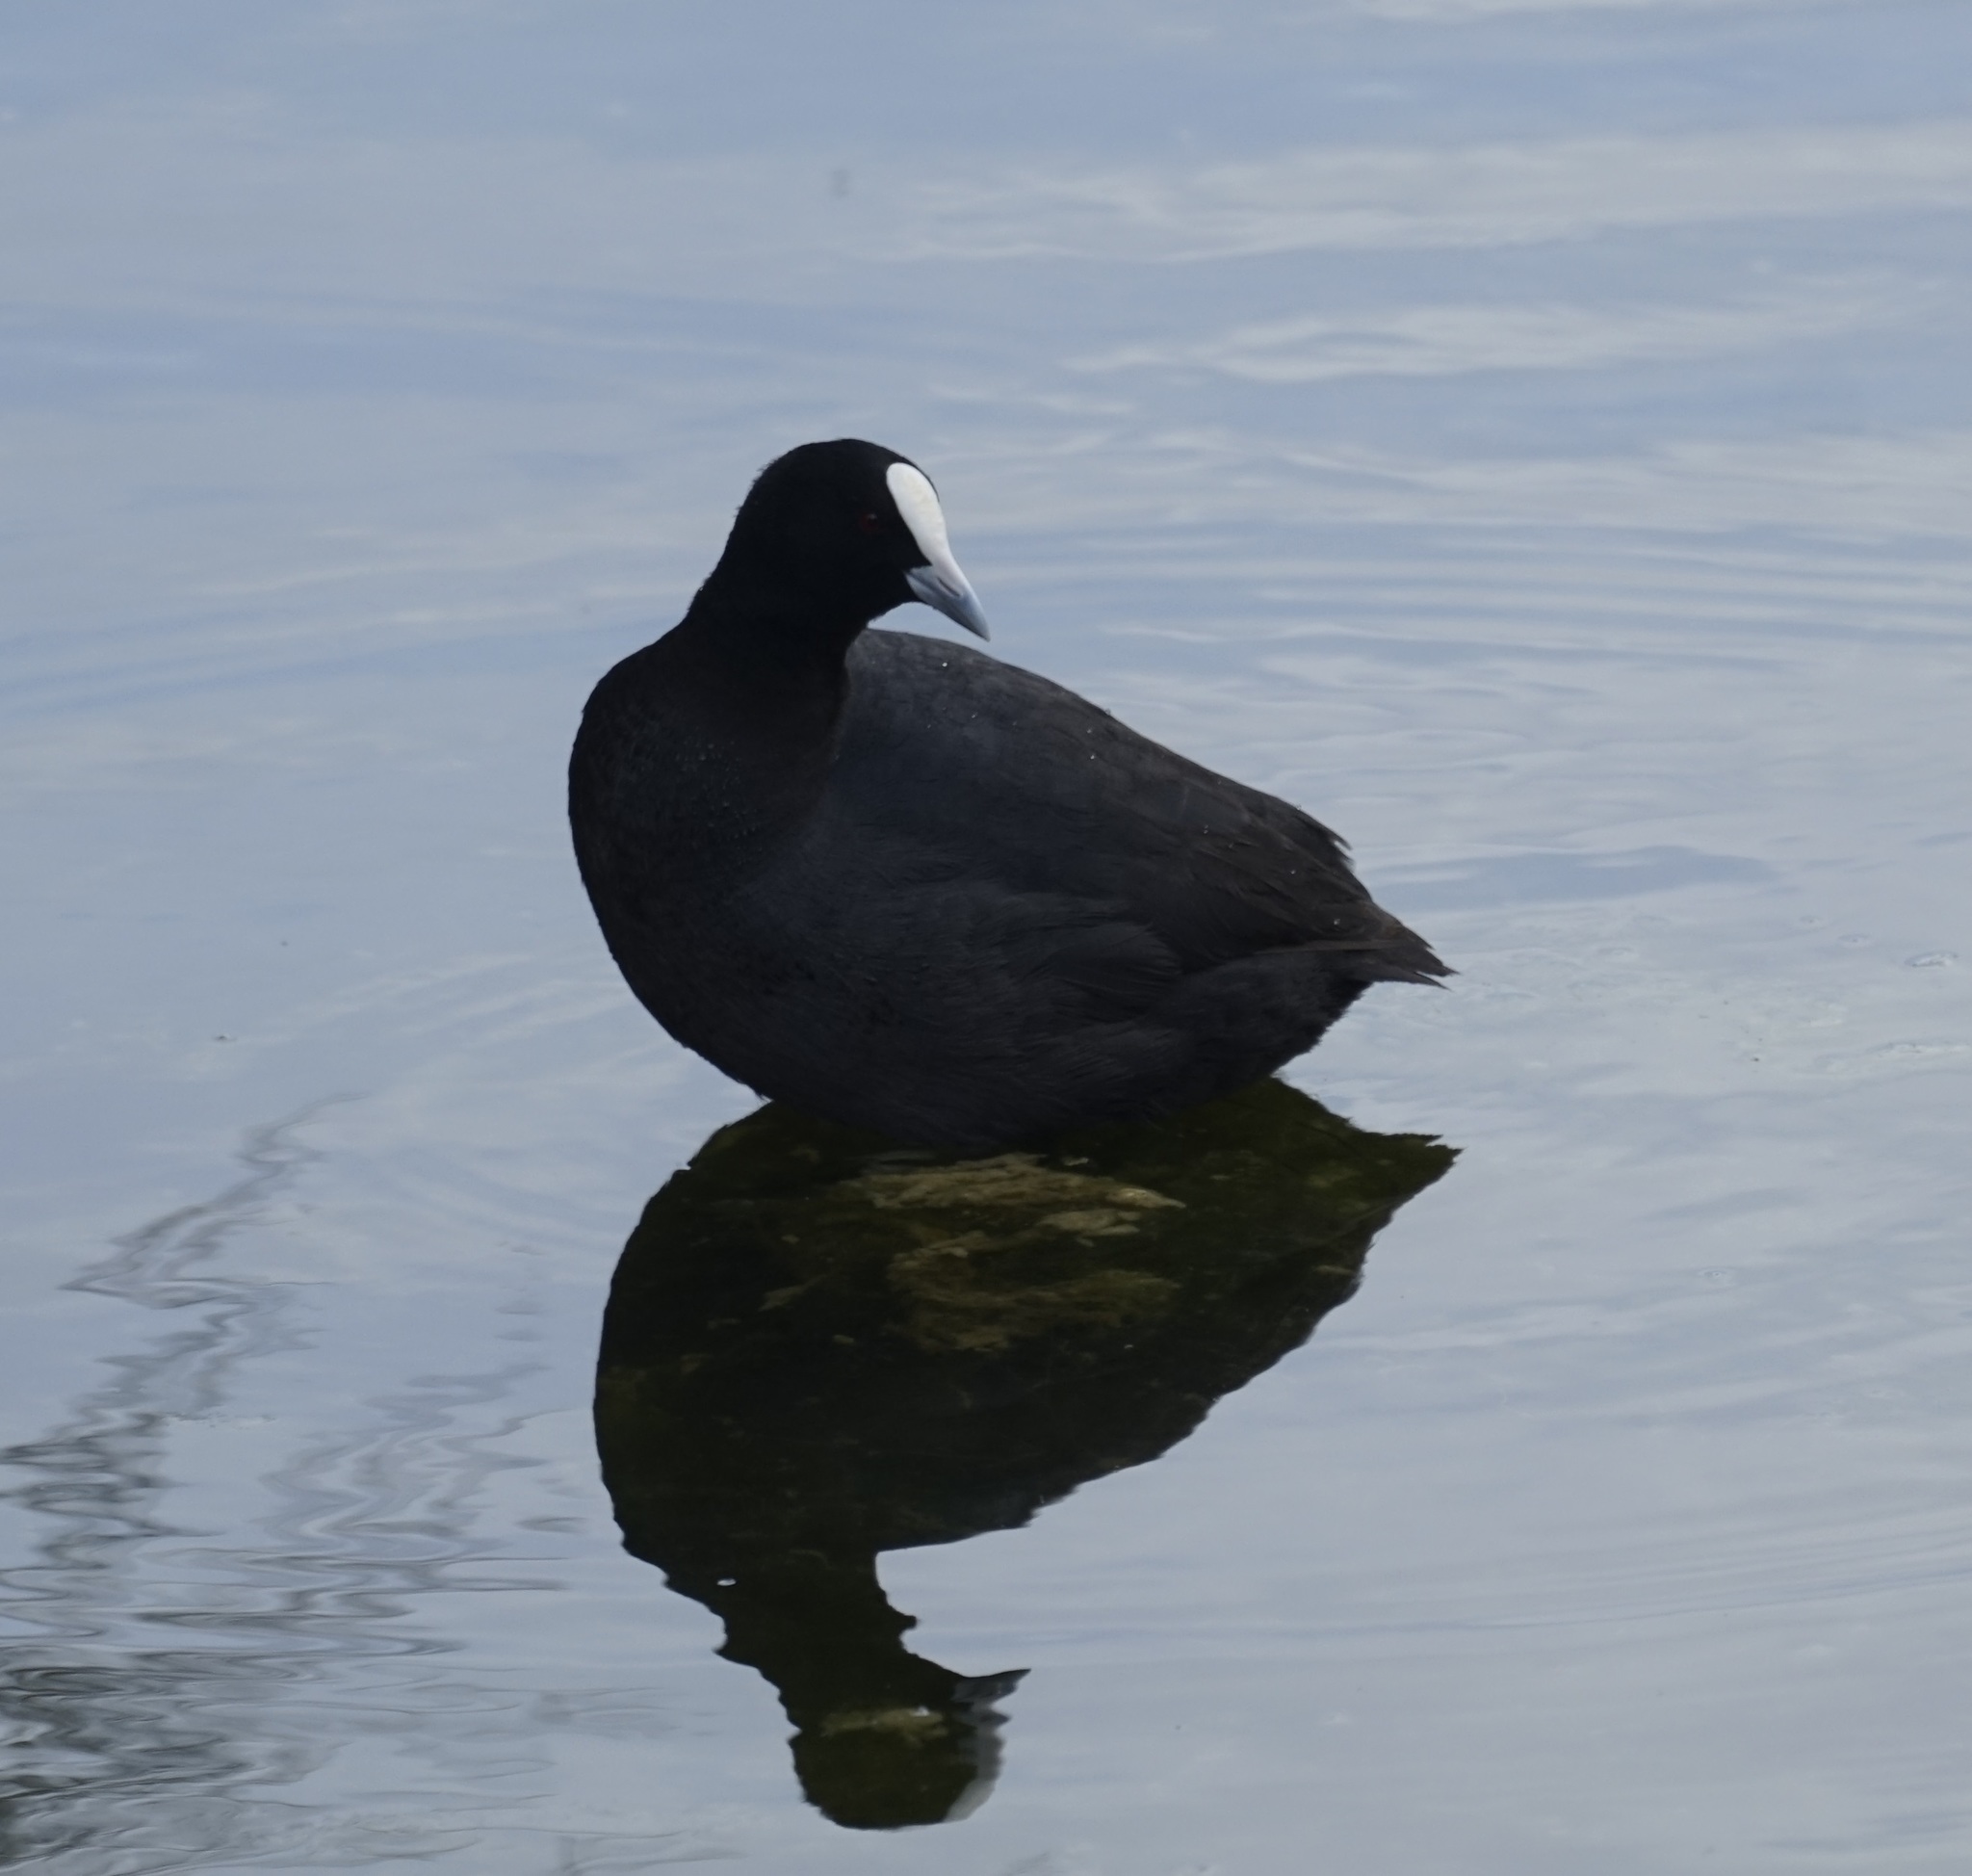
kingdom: Animalia
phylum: Chordata
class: Aves
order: Gruiformes
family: Rallidae
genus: Fulica
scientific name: Fulica atra
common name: Eurasian coot
